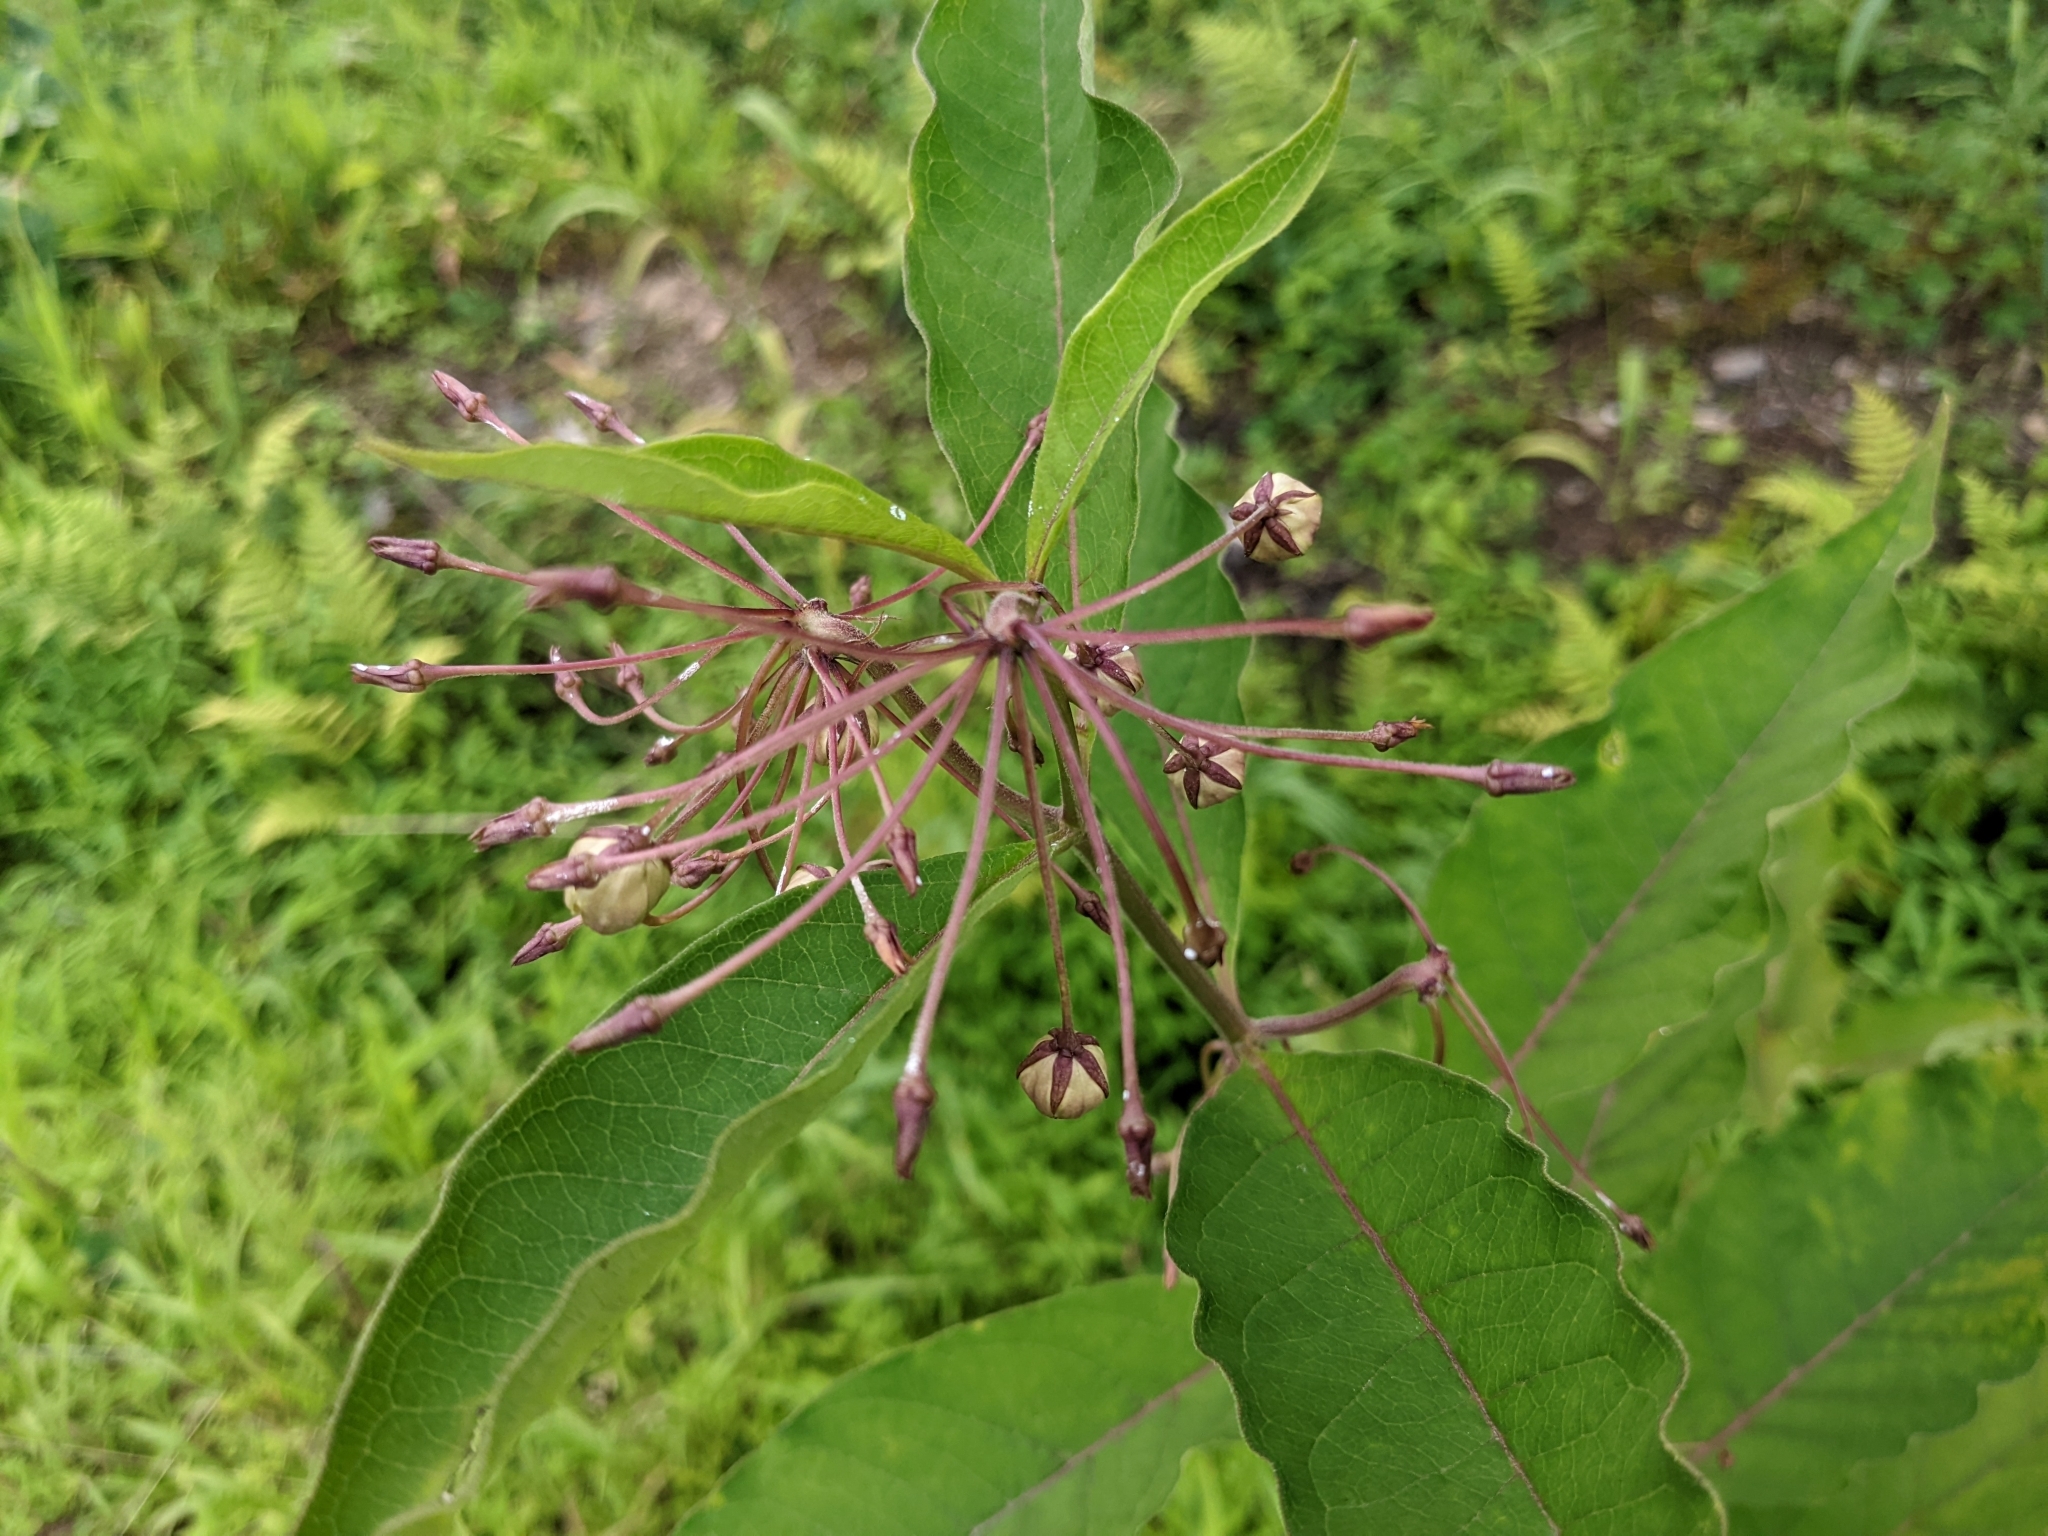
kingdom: Plantae
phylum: Tracheophyta
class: Magnoliopsida
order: Gentianales
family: Apocynaceae
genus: Asclepias
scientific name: Asclepias exaltata
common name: Poke milkweed
